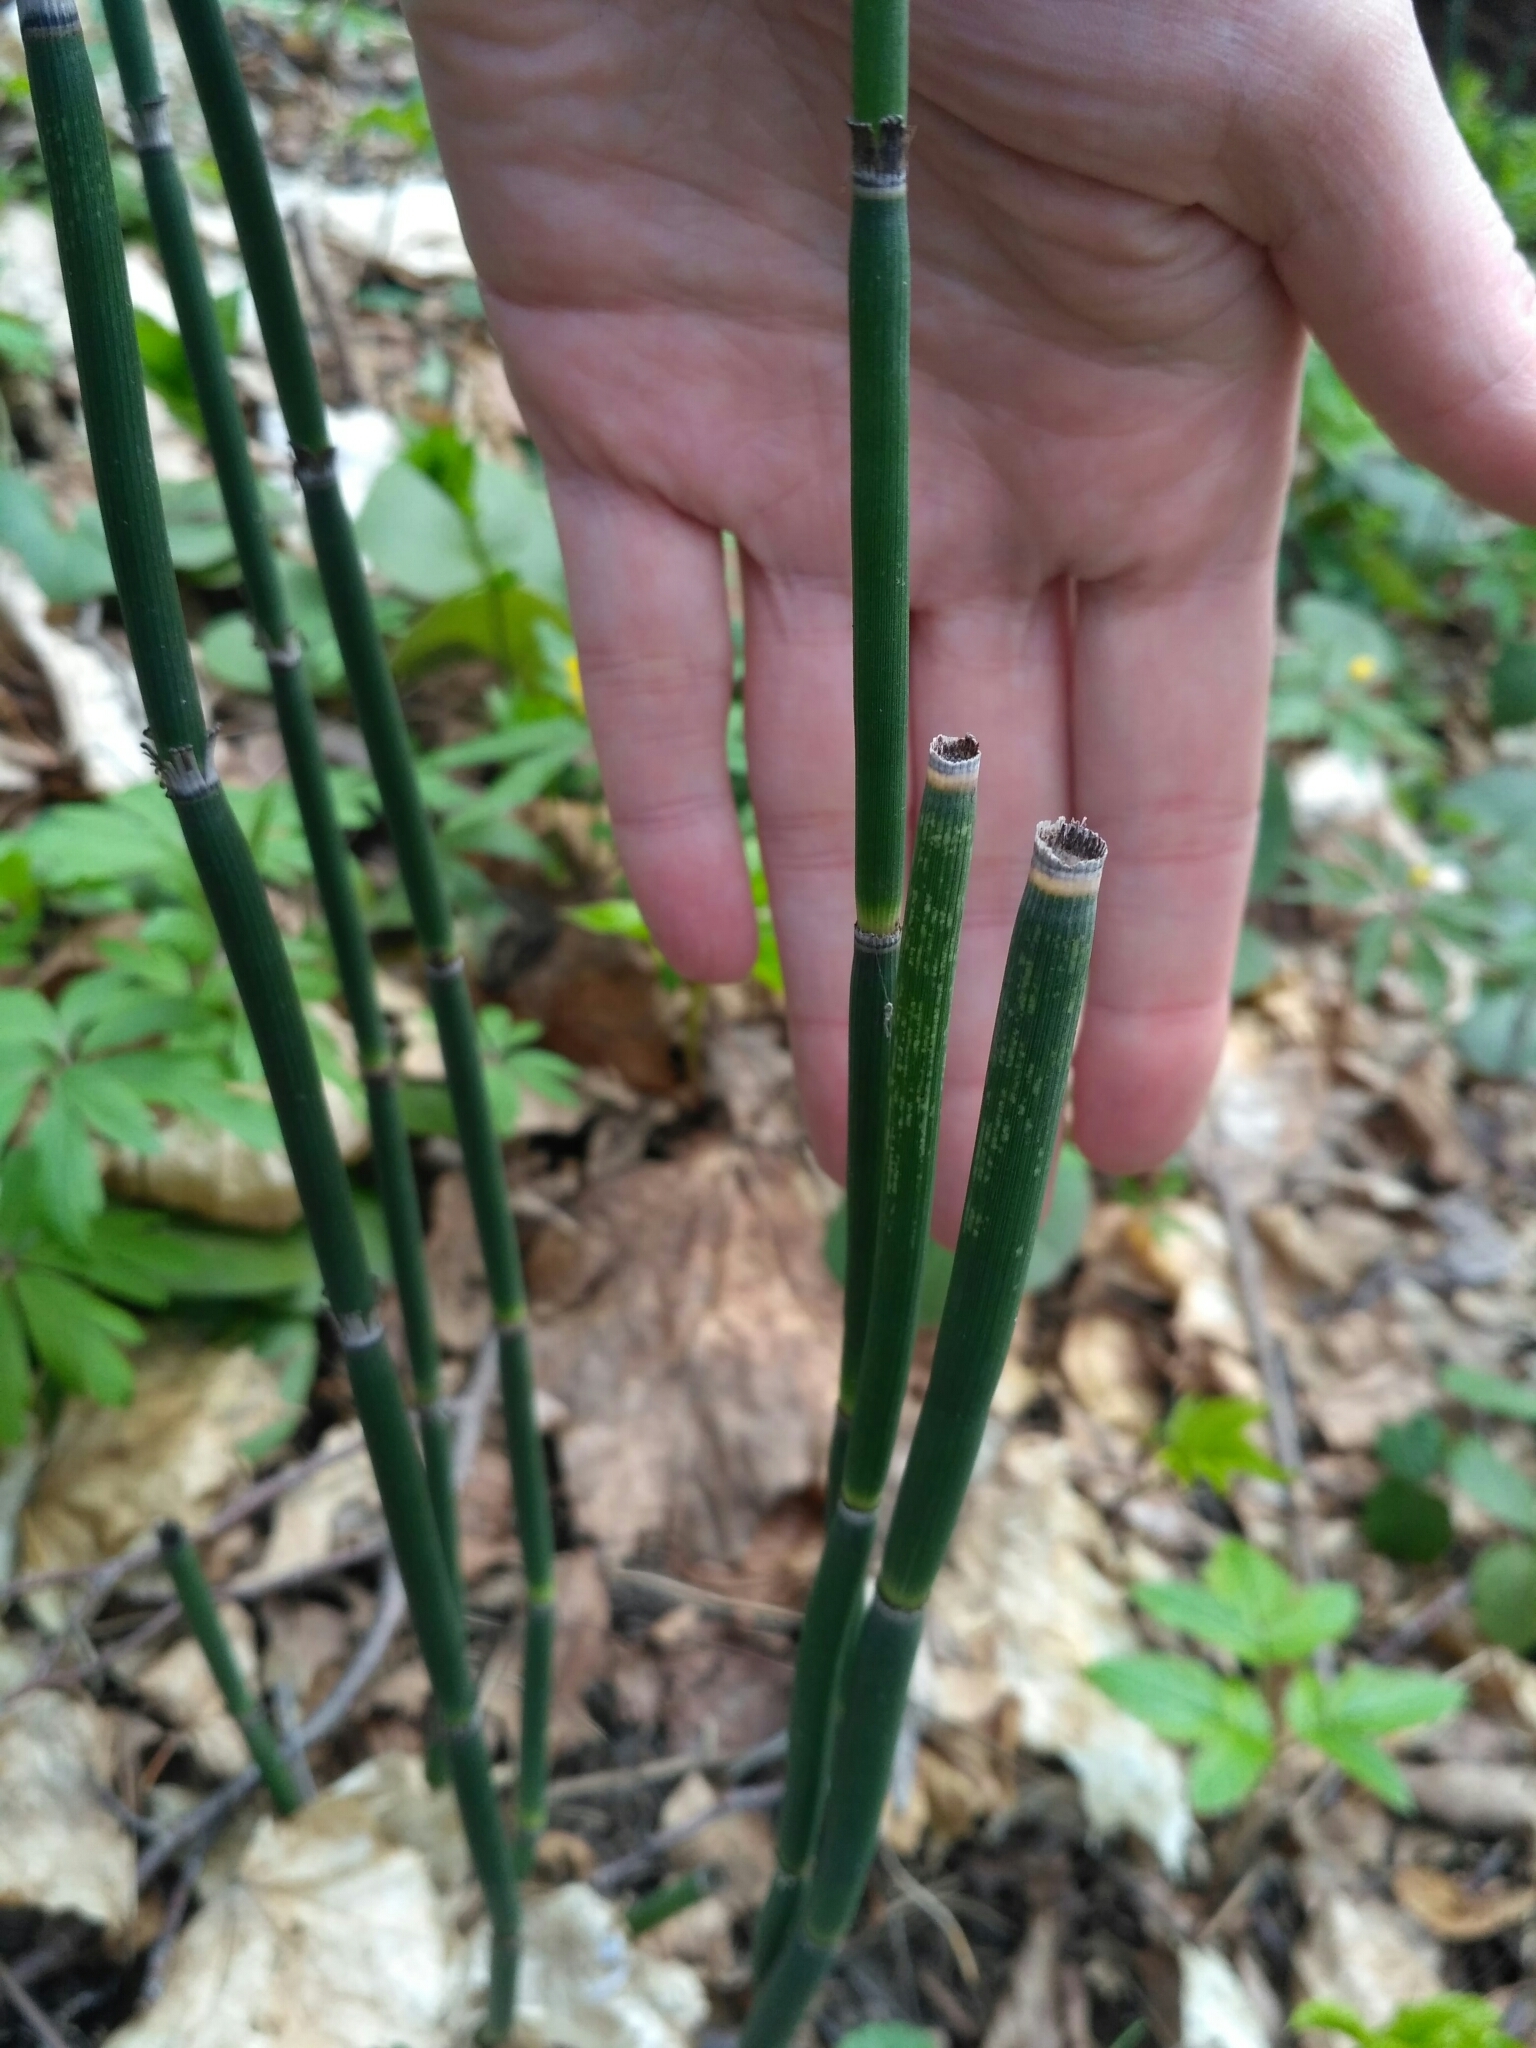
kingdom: Plantae
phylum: Tracheophyta
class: Polypodiopsida
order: Equisetales
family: Equisetaceae
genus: Equisetum
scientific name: Equisetum hyemale
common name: Rough horsetail
